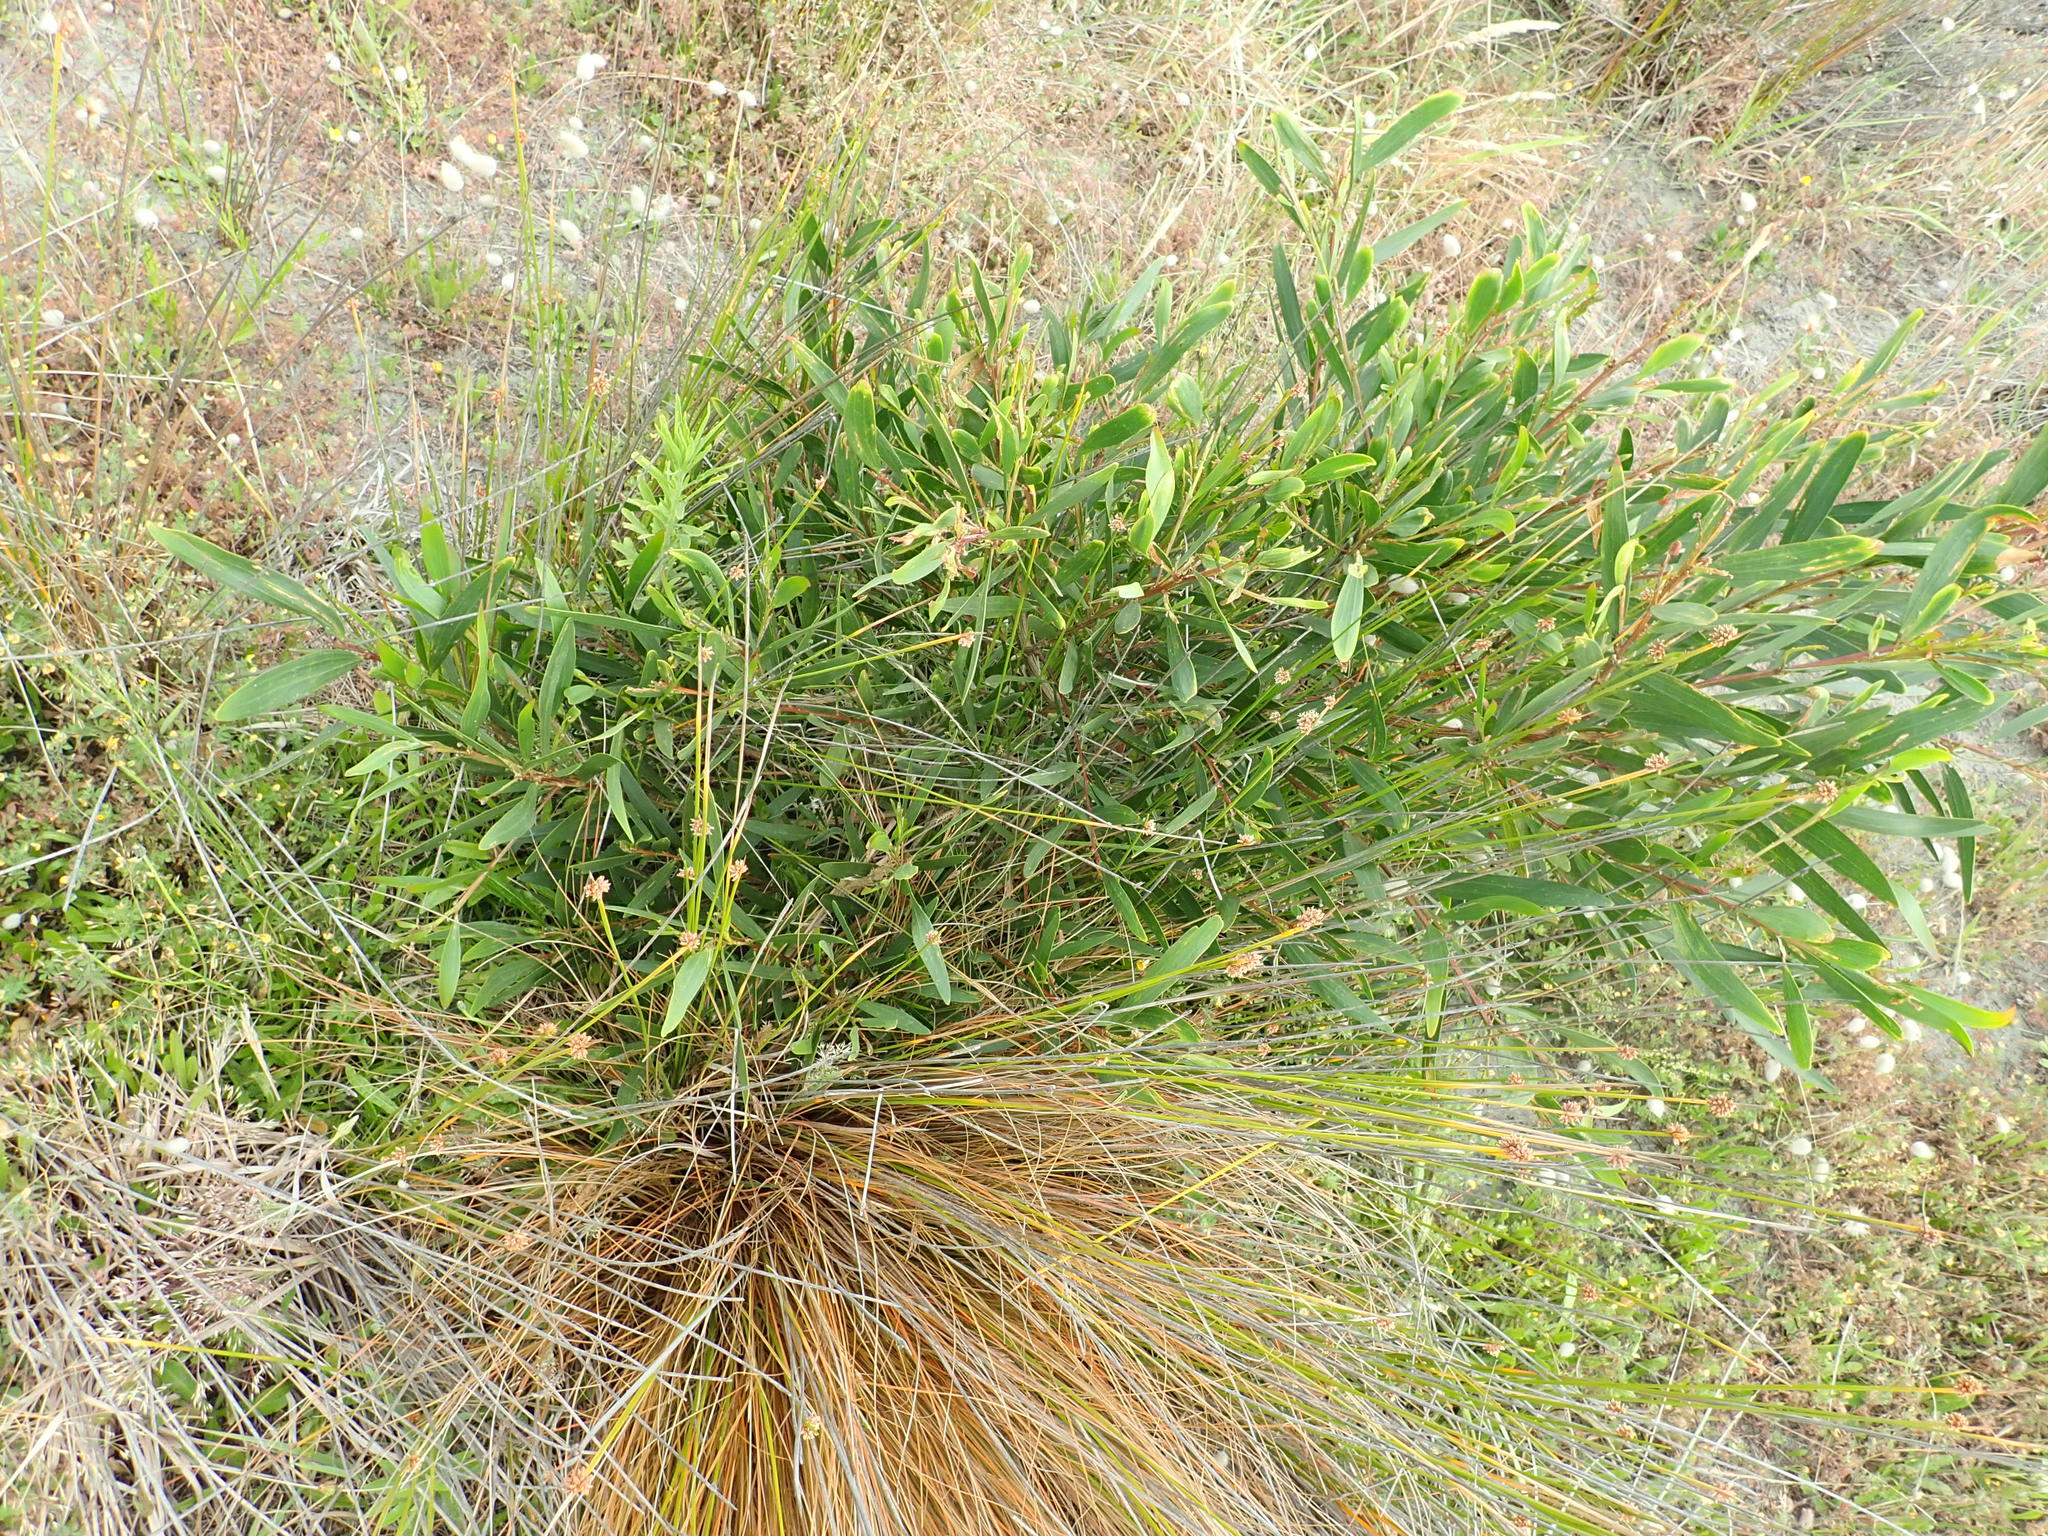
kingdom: Plantae
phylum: Tracheophyta
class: Magnoliopsida
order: Fabales
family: Fabaceae
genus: Acacia
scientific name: Acacia longifolia
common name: Sydney golden wattle
